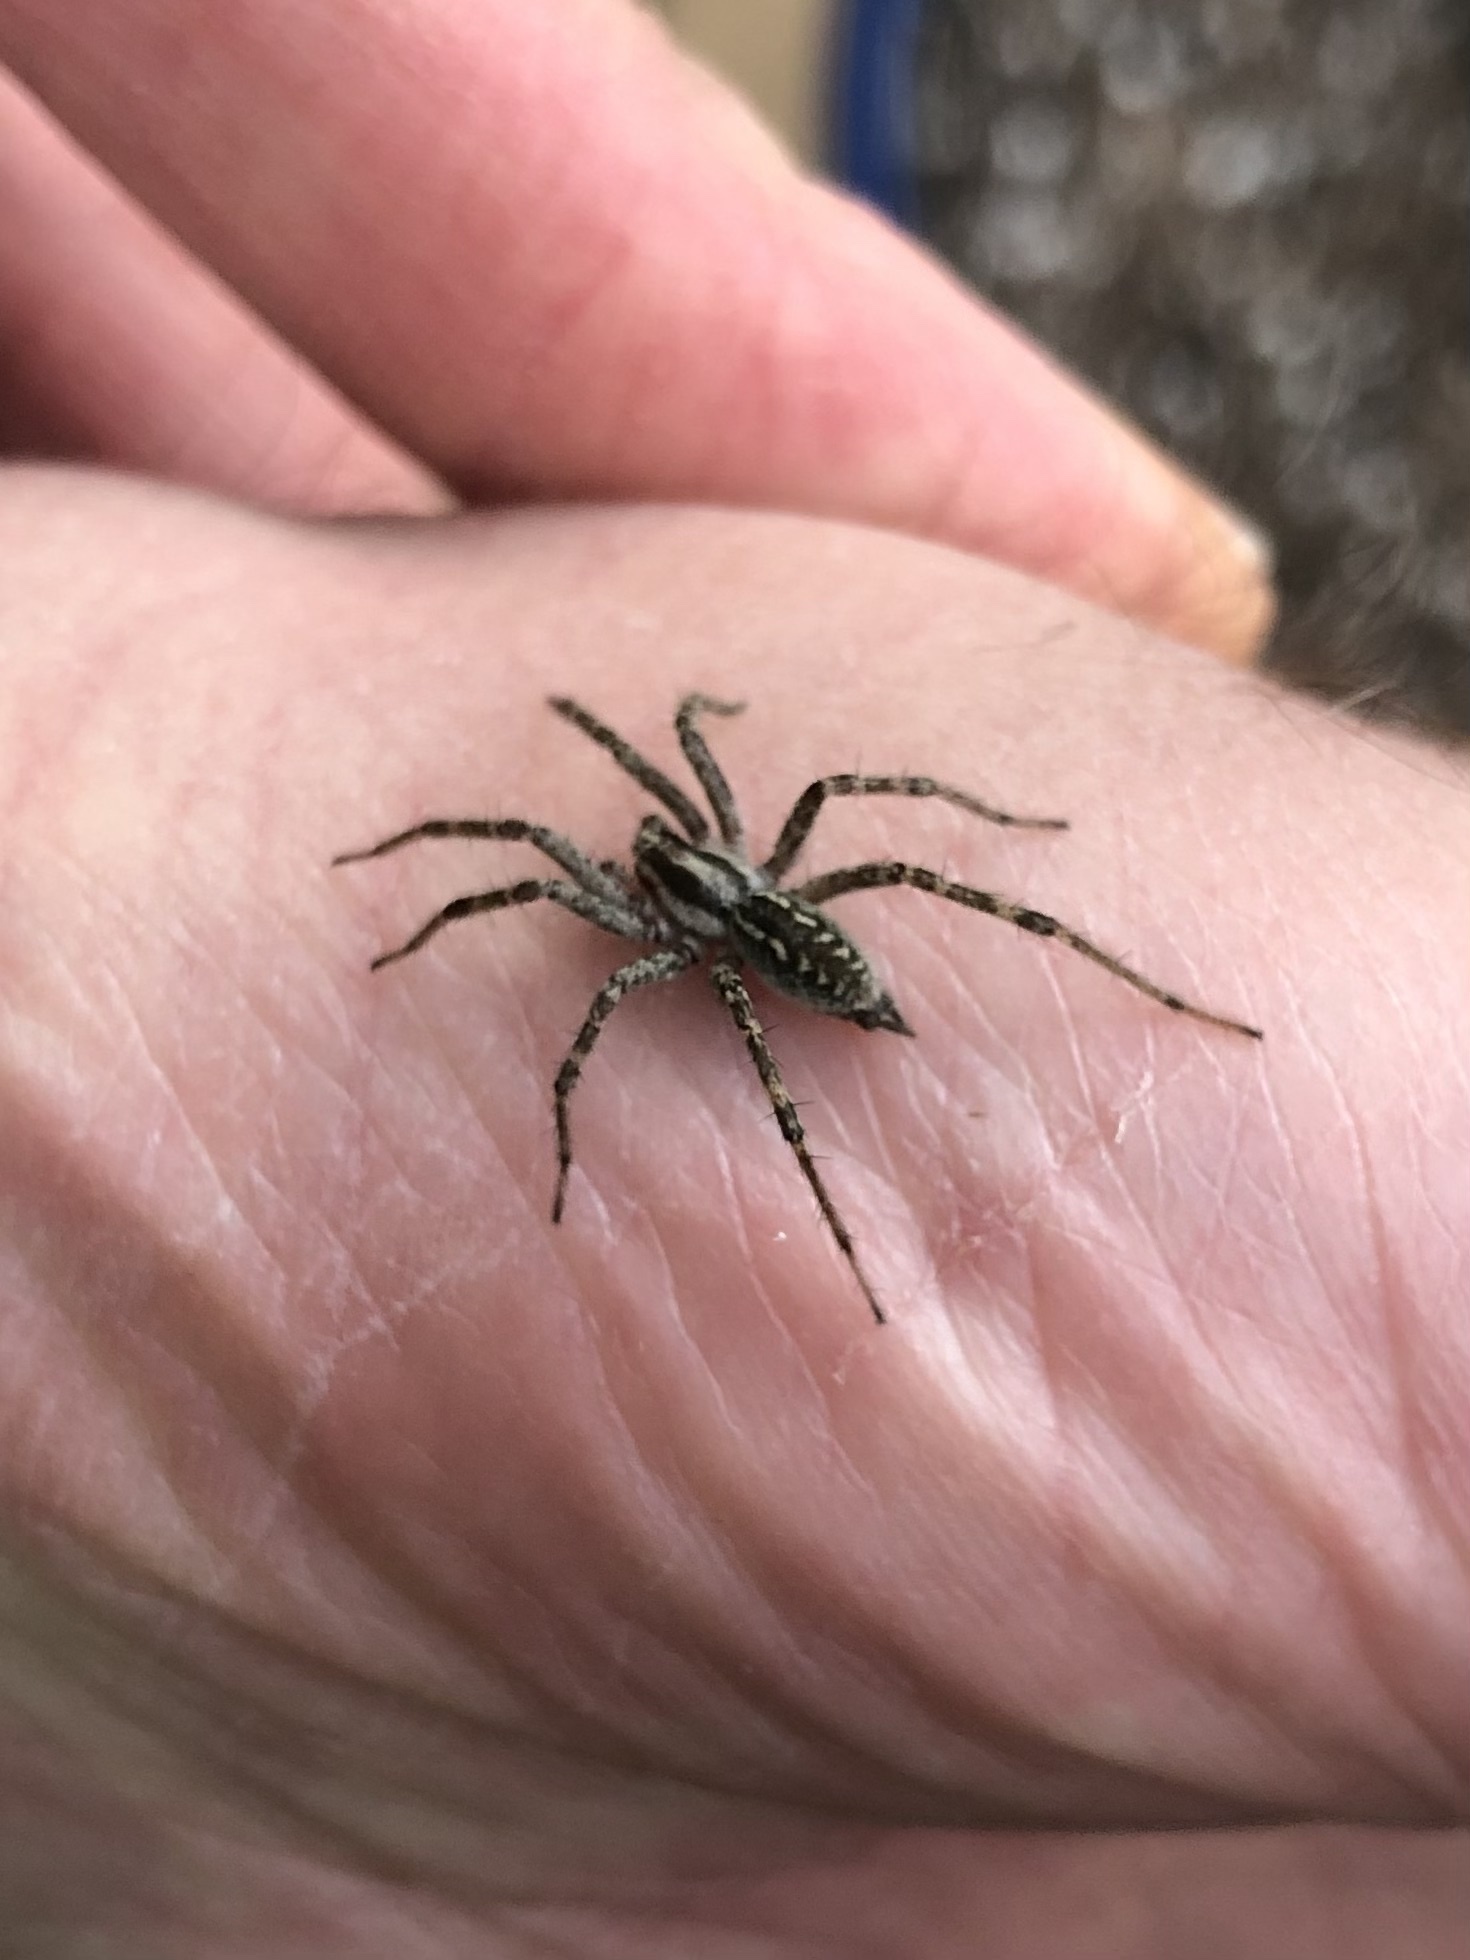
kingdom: Animalia
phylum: Arthropoda
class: Arachnida
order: Araneae
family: Agelenidae
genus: Agelenopsis
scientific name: Agelenopsis
